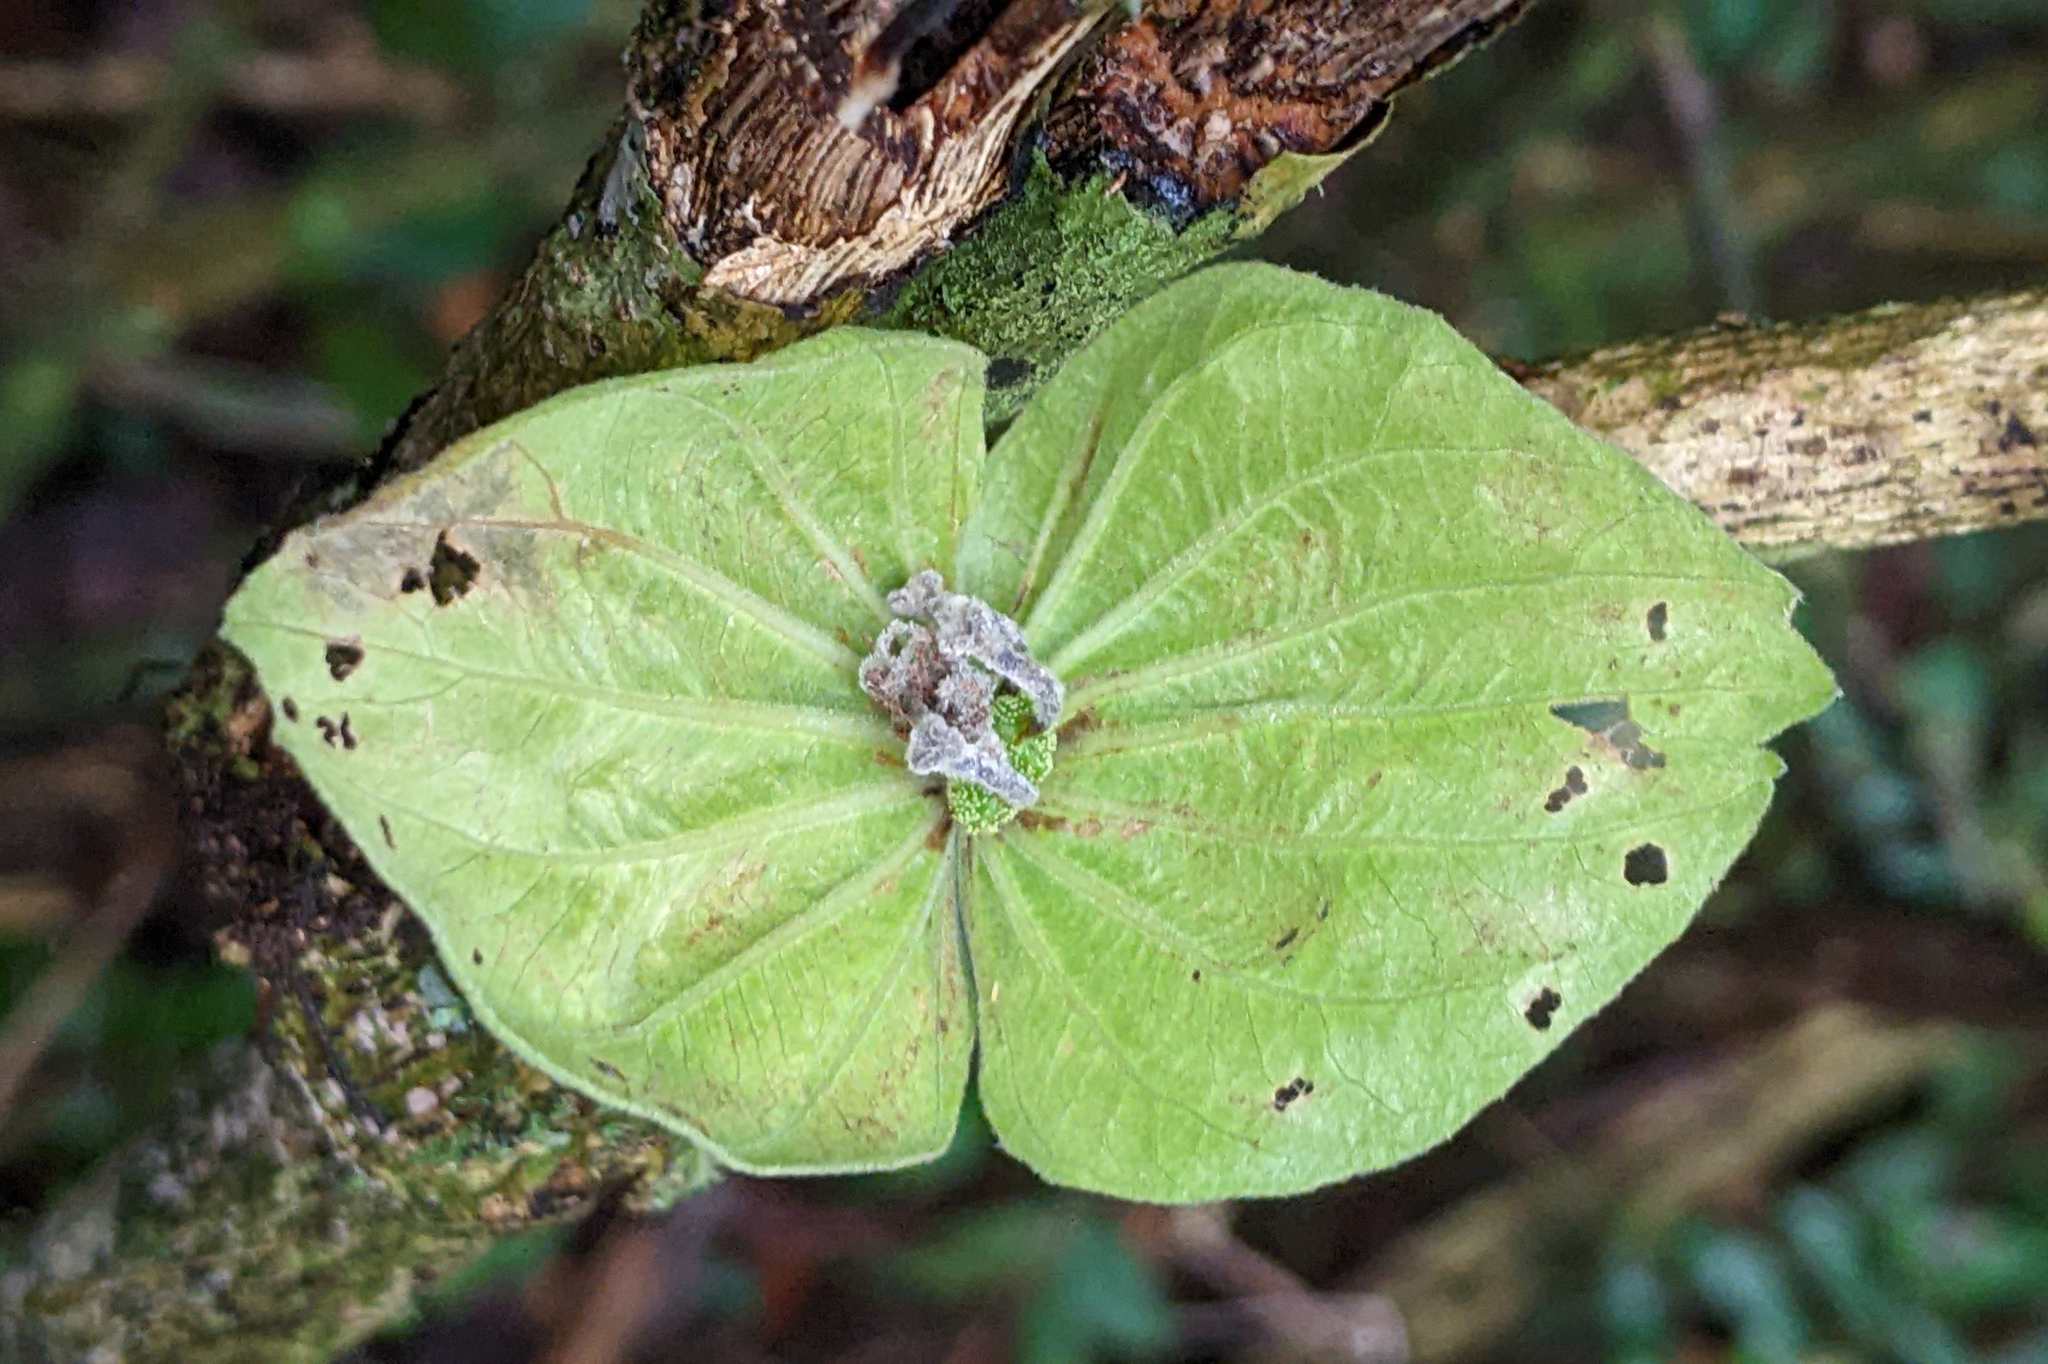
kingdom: Plantae
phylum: Tracheophyta
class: Magnoliopsida
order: Malpighiales
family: Euphorbiaceae
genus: Dalechampia
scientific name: Dalechampia brownsbergensis
